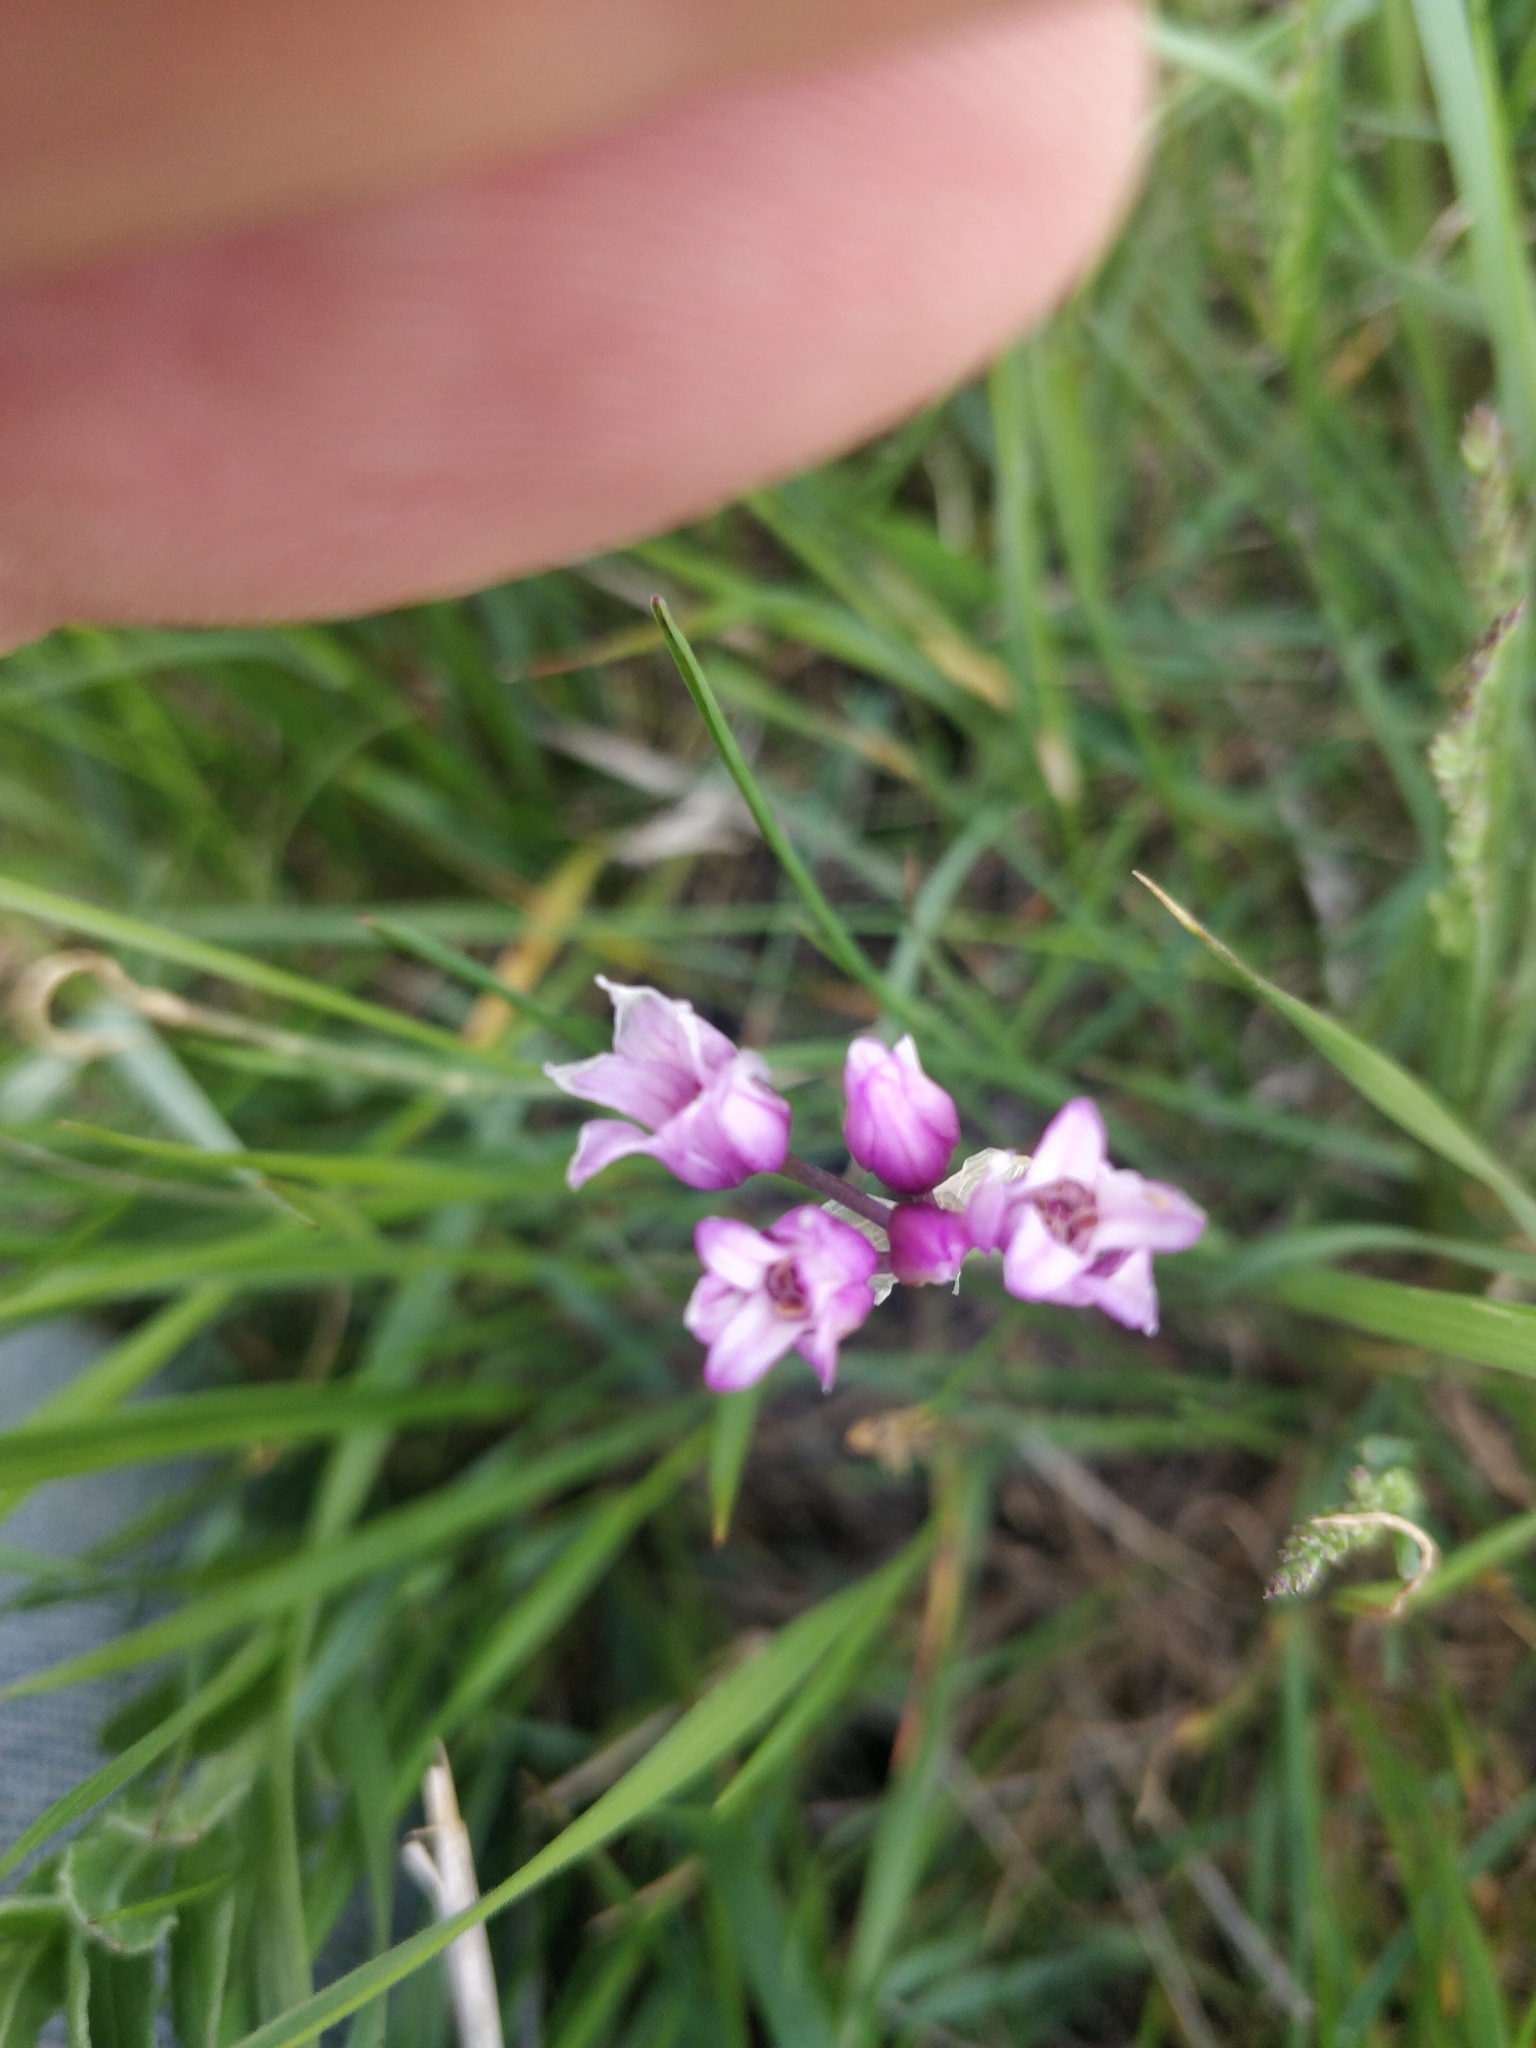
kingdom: Plantae
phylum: Tracheophyta
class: Liliopsida
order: Asparagales
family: Amaryllidaceae
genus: Allium
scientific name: Allium perdulce
